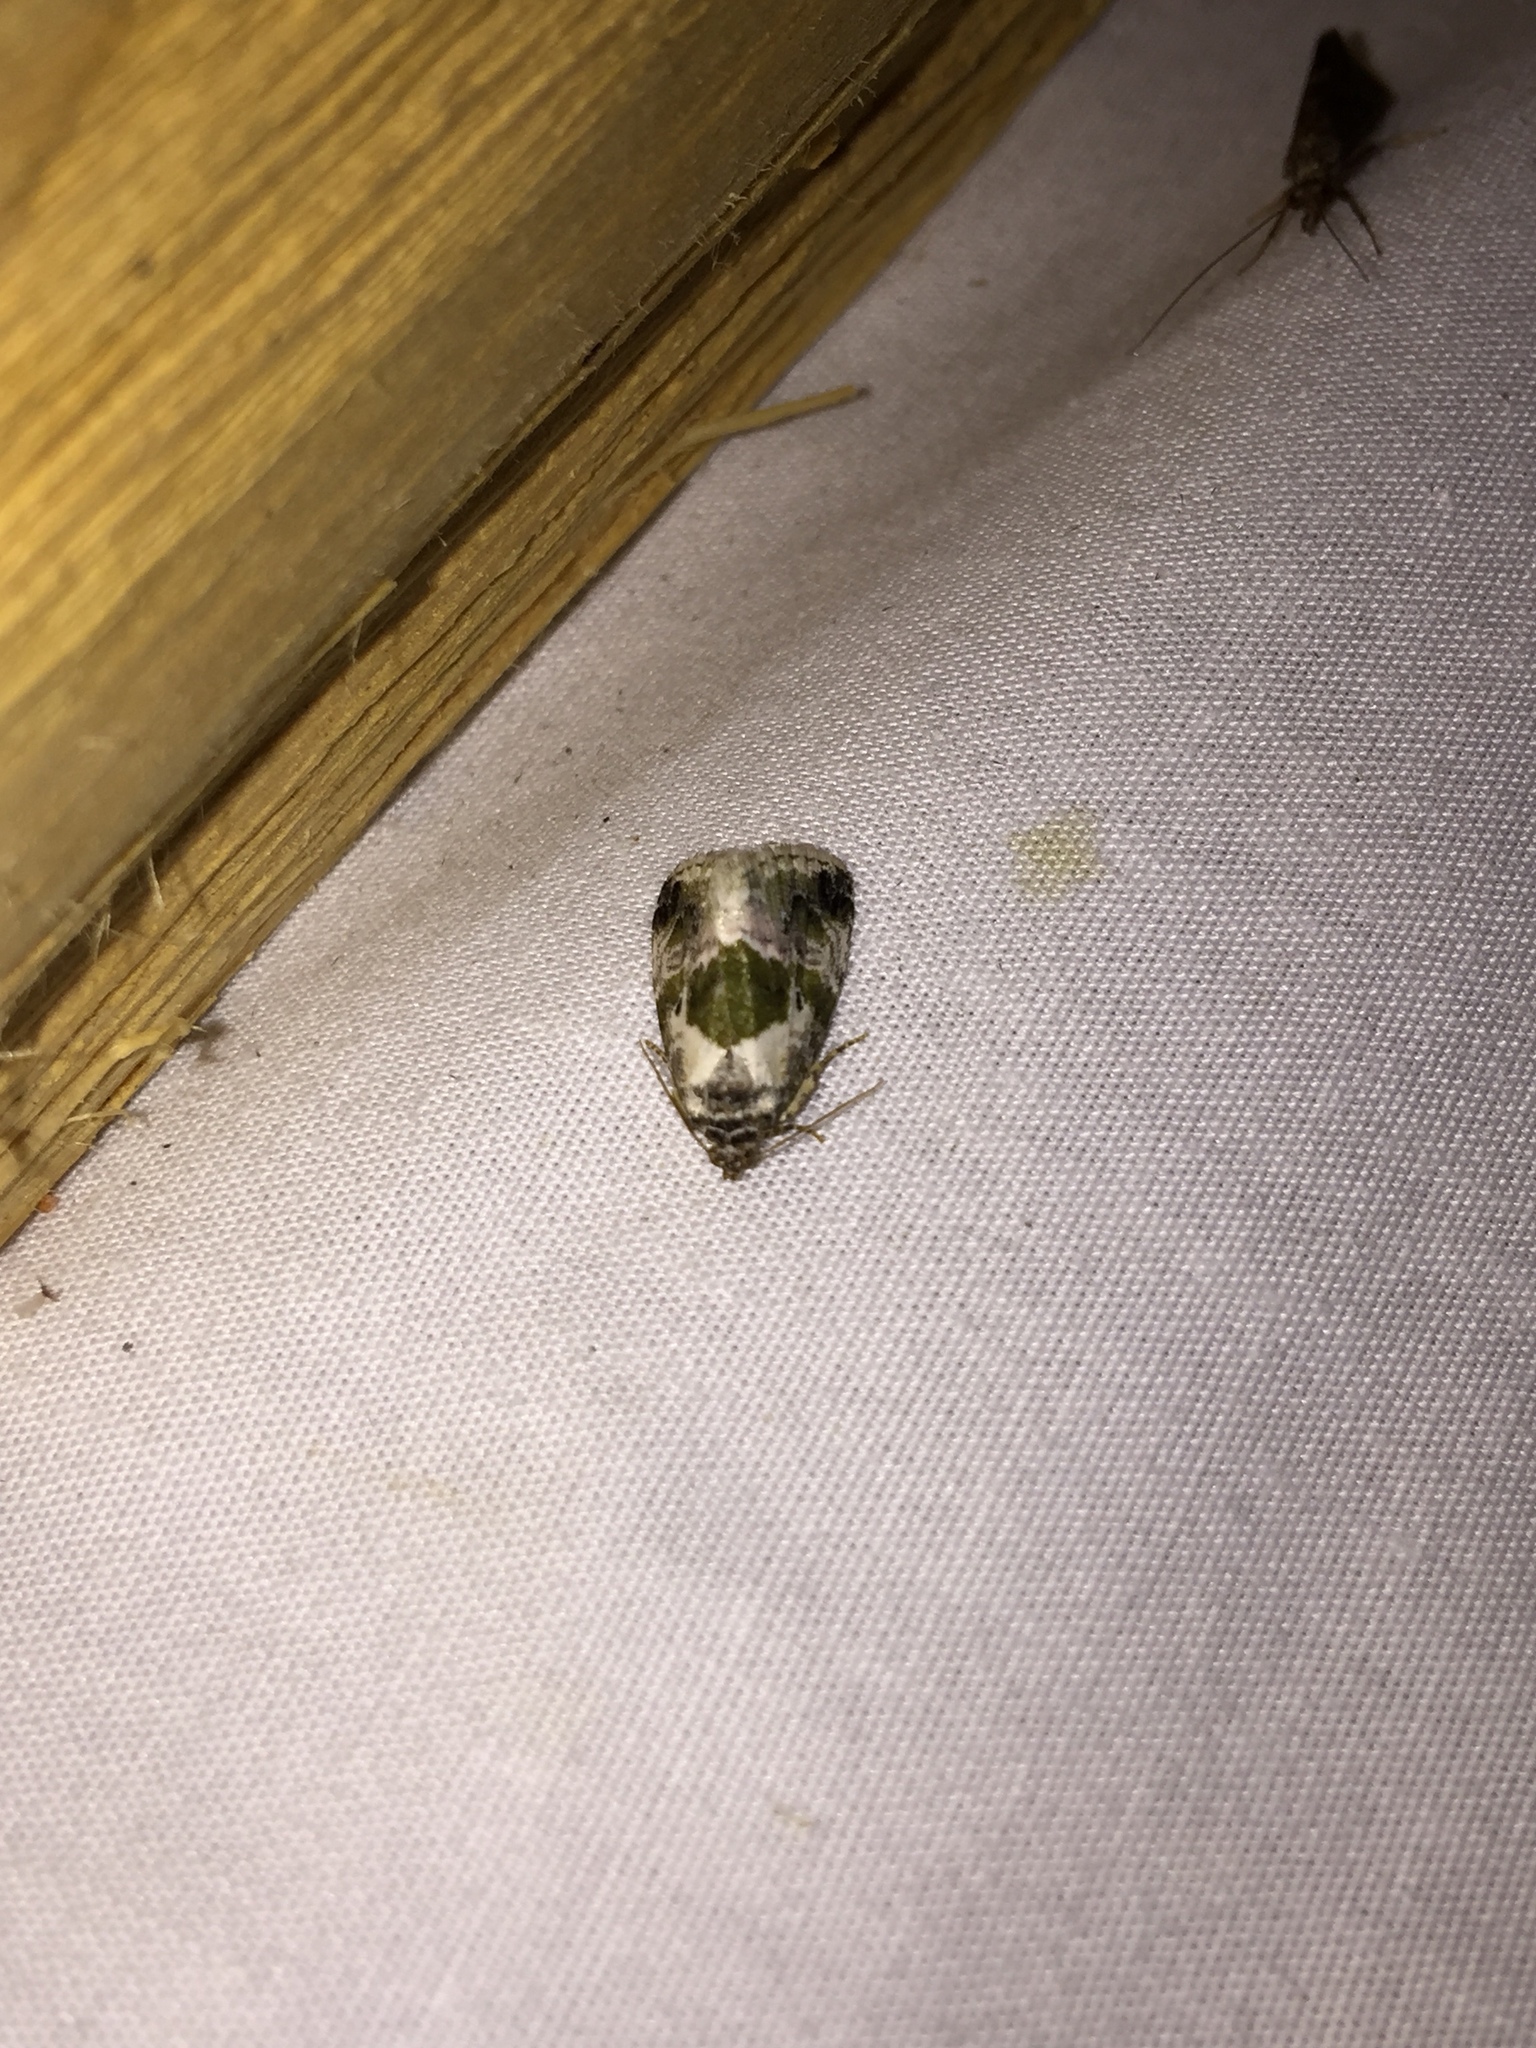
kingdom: Animalia
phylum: Arthropoda
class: Insecta
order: Lepidoptera
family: Noctuidae
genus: Maliattha
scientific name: Maliattha synochitis
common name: Black-dotted glyph
